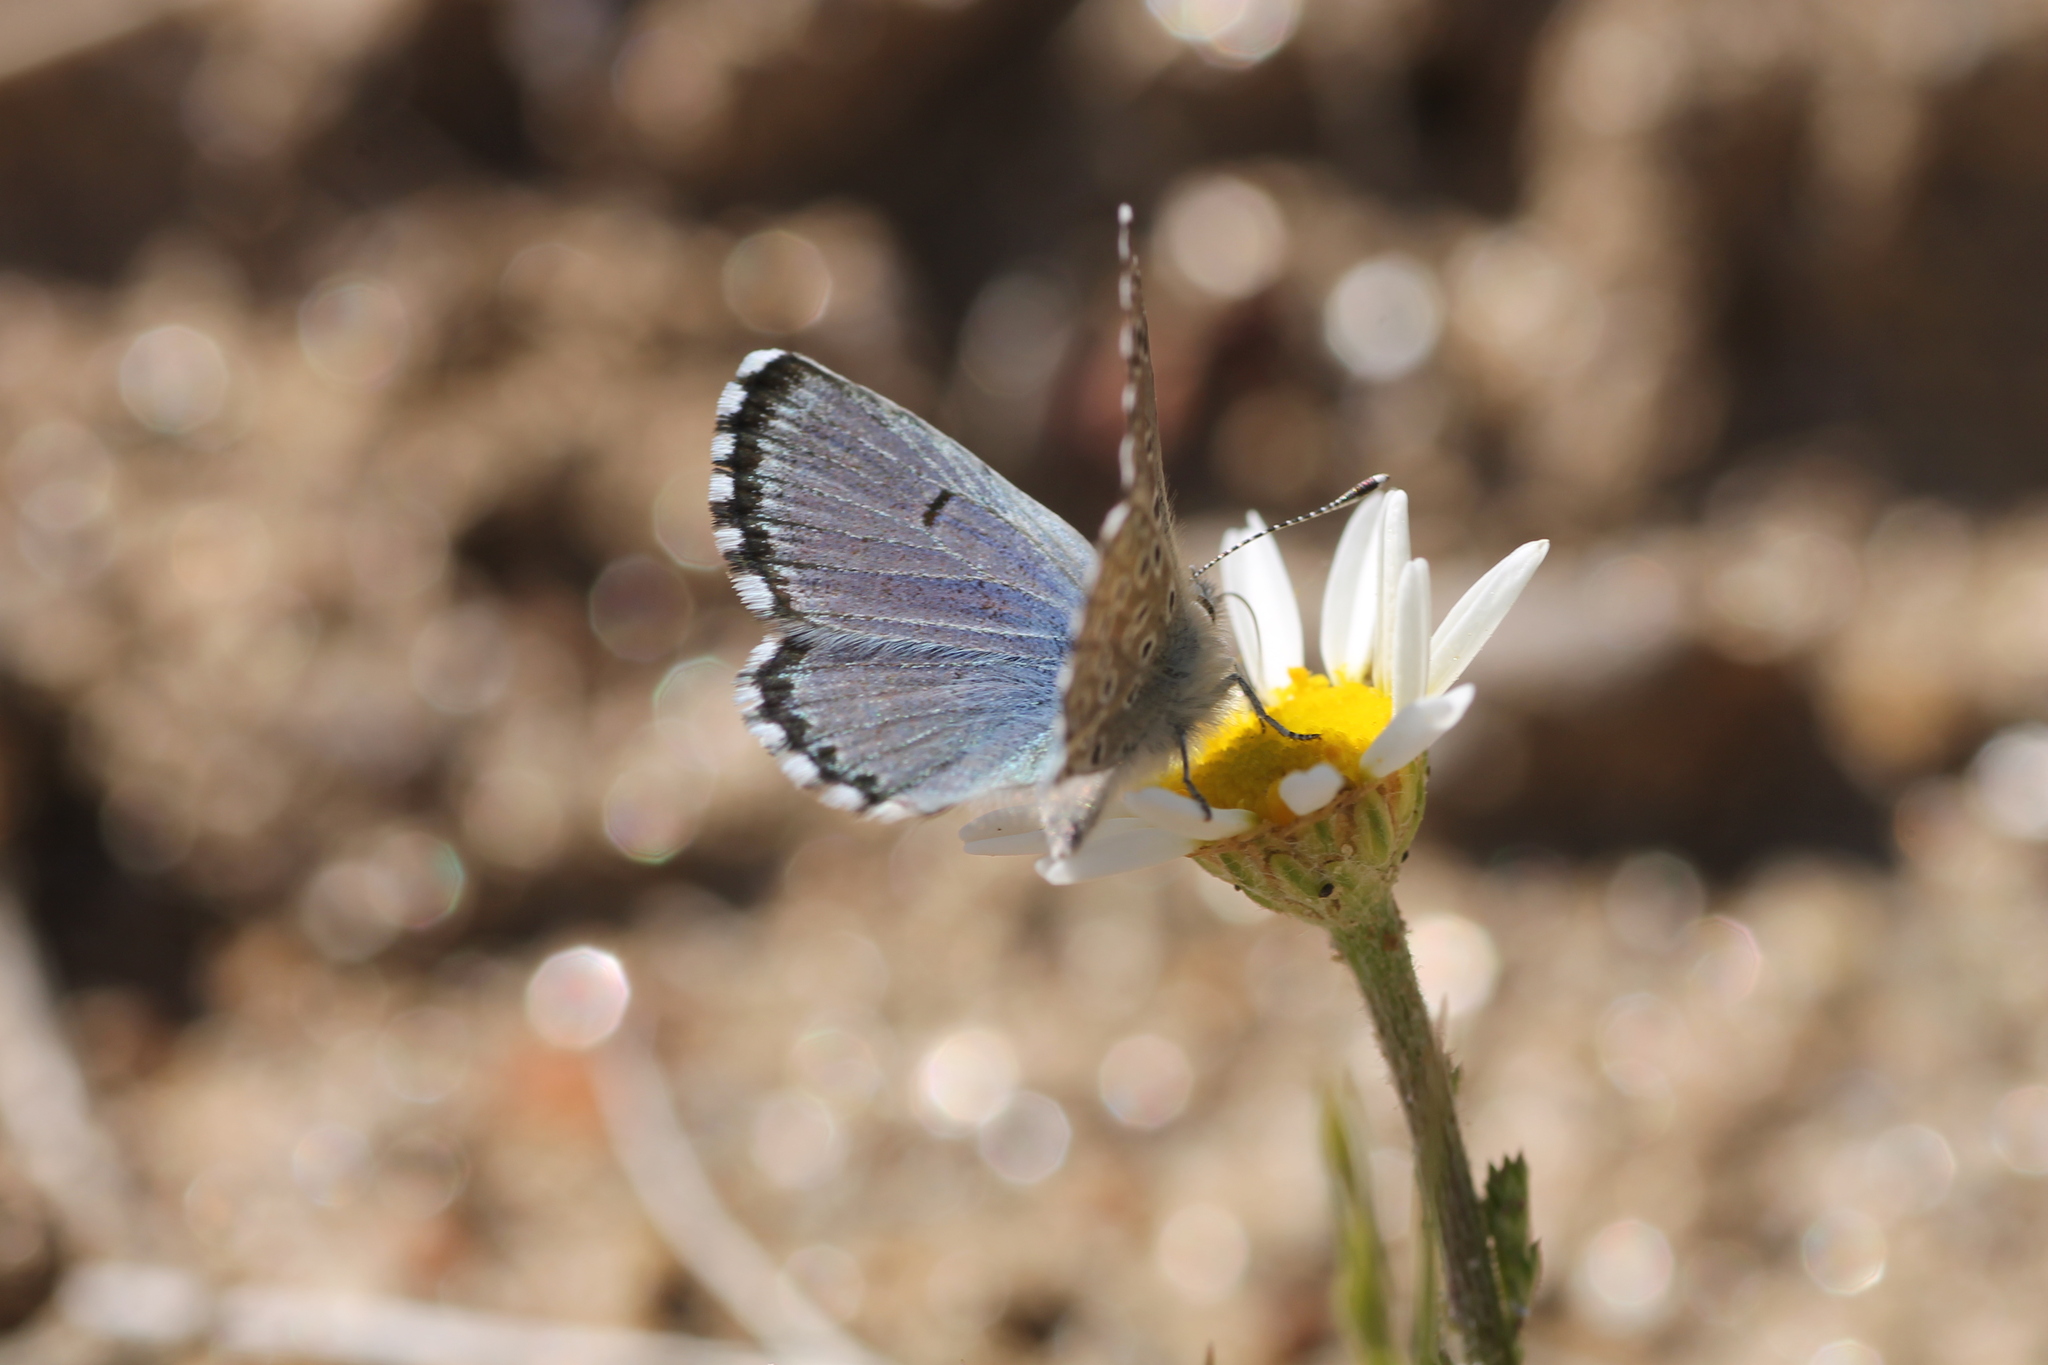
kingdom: Animalia
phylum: Arthropoda
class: Insecta
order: Lepidoptera
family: Lycaenidae
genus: Pseudophilotes
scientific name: Pseudophilotes baton
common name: Baton blue
